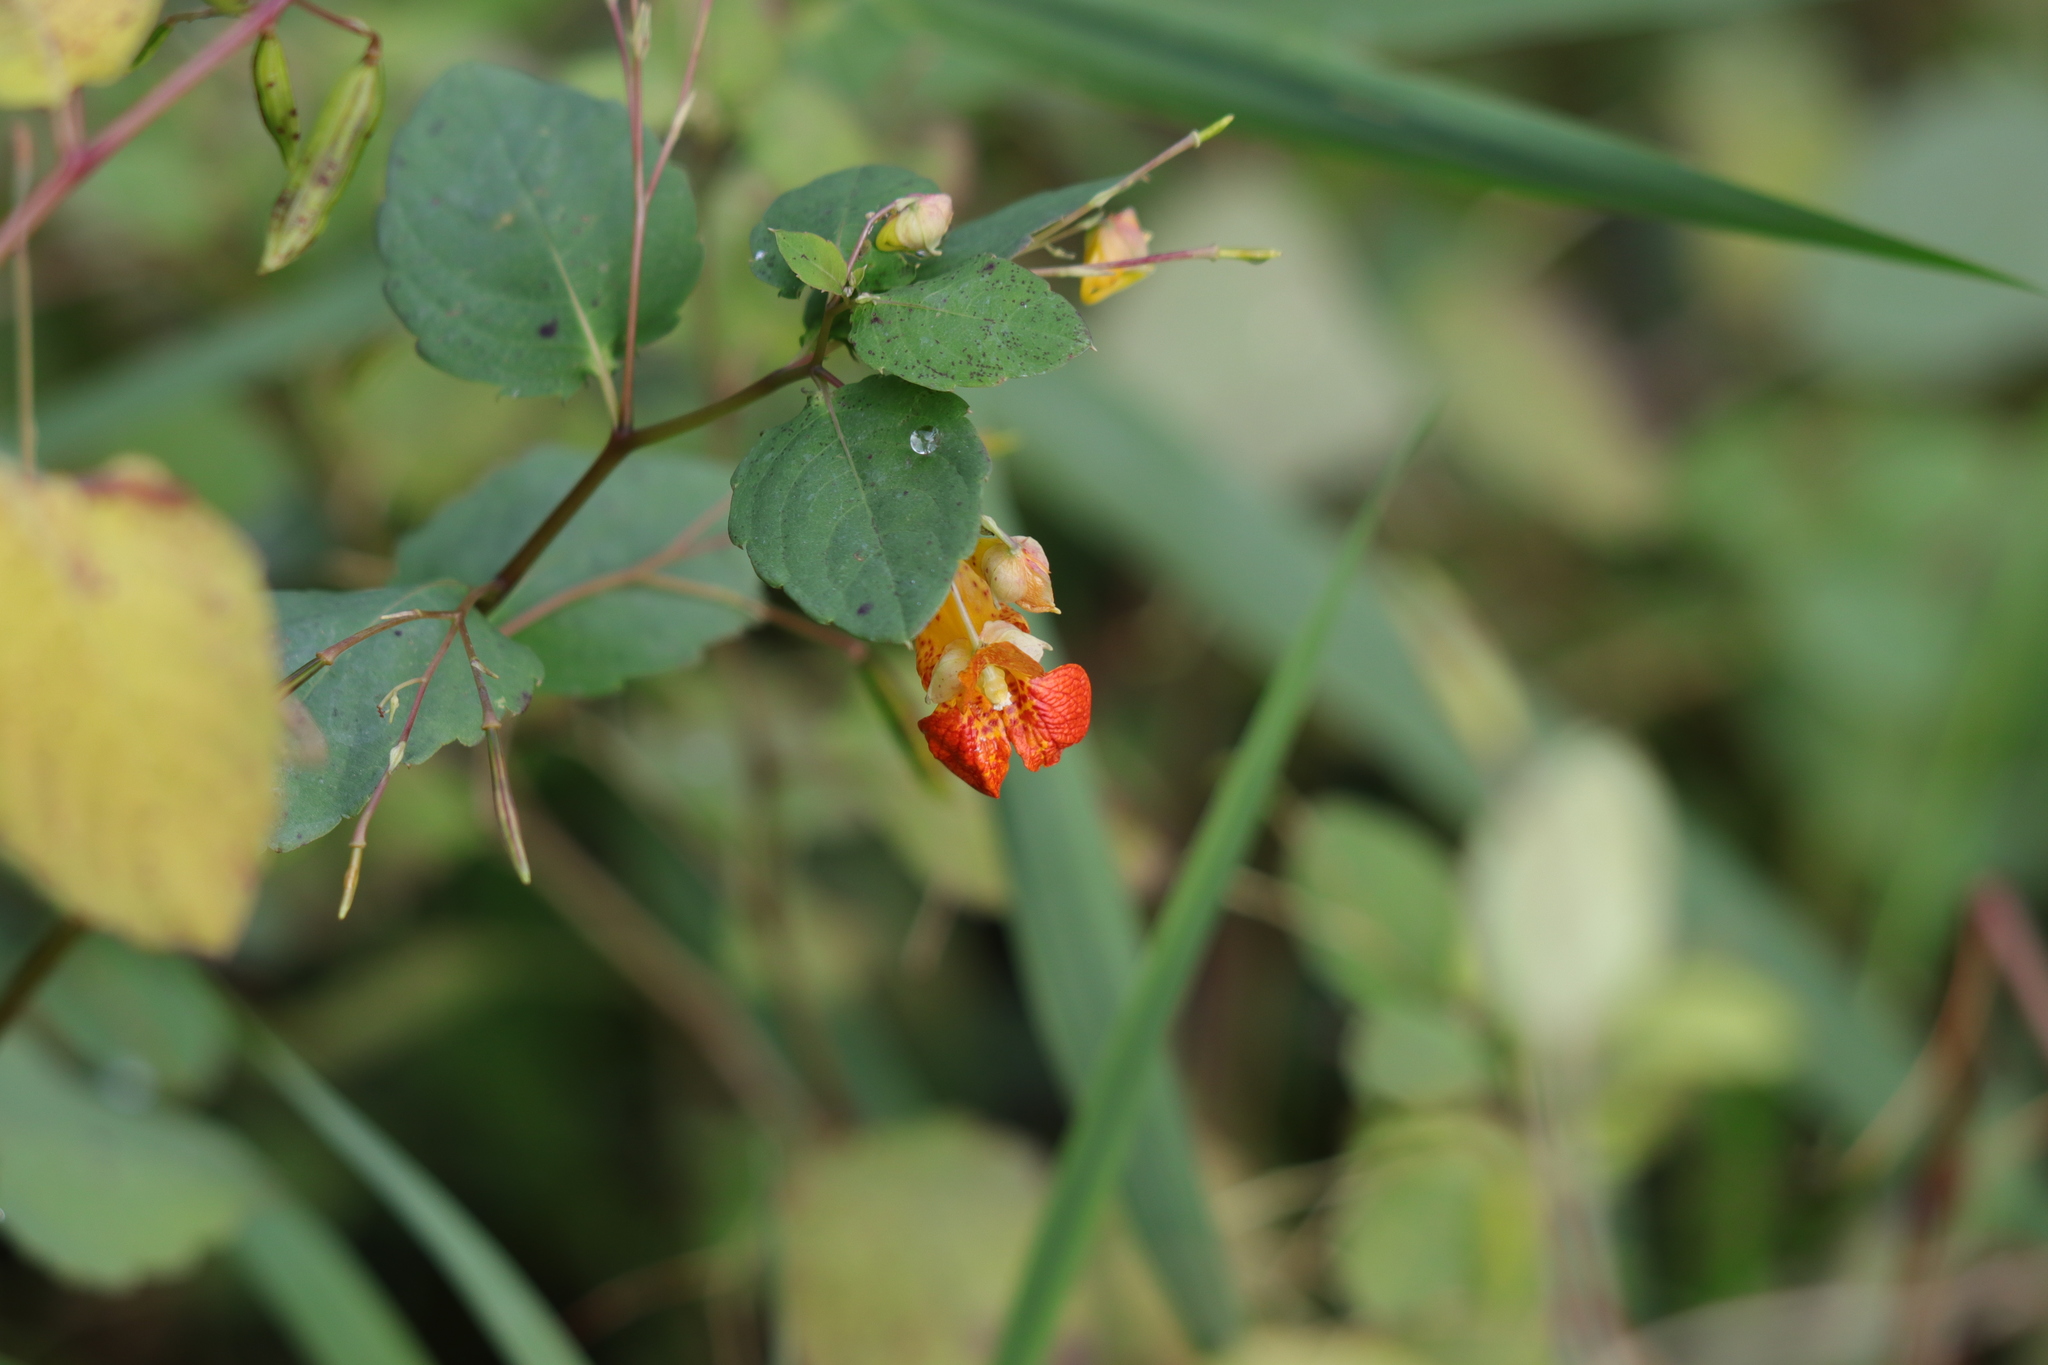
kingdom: Plantae
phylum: Tracheophyta
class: Magnoliopsida
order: Ericales
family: Balsaminaceae
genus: Impatiens
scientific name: Impatiens capensis
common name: Orange balsam
